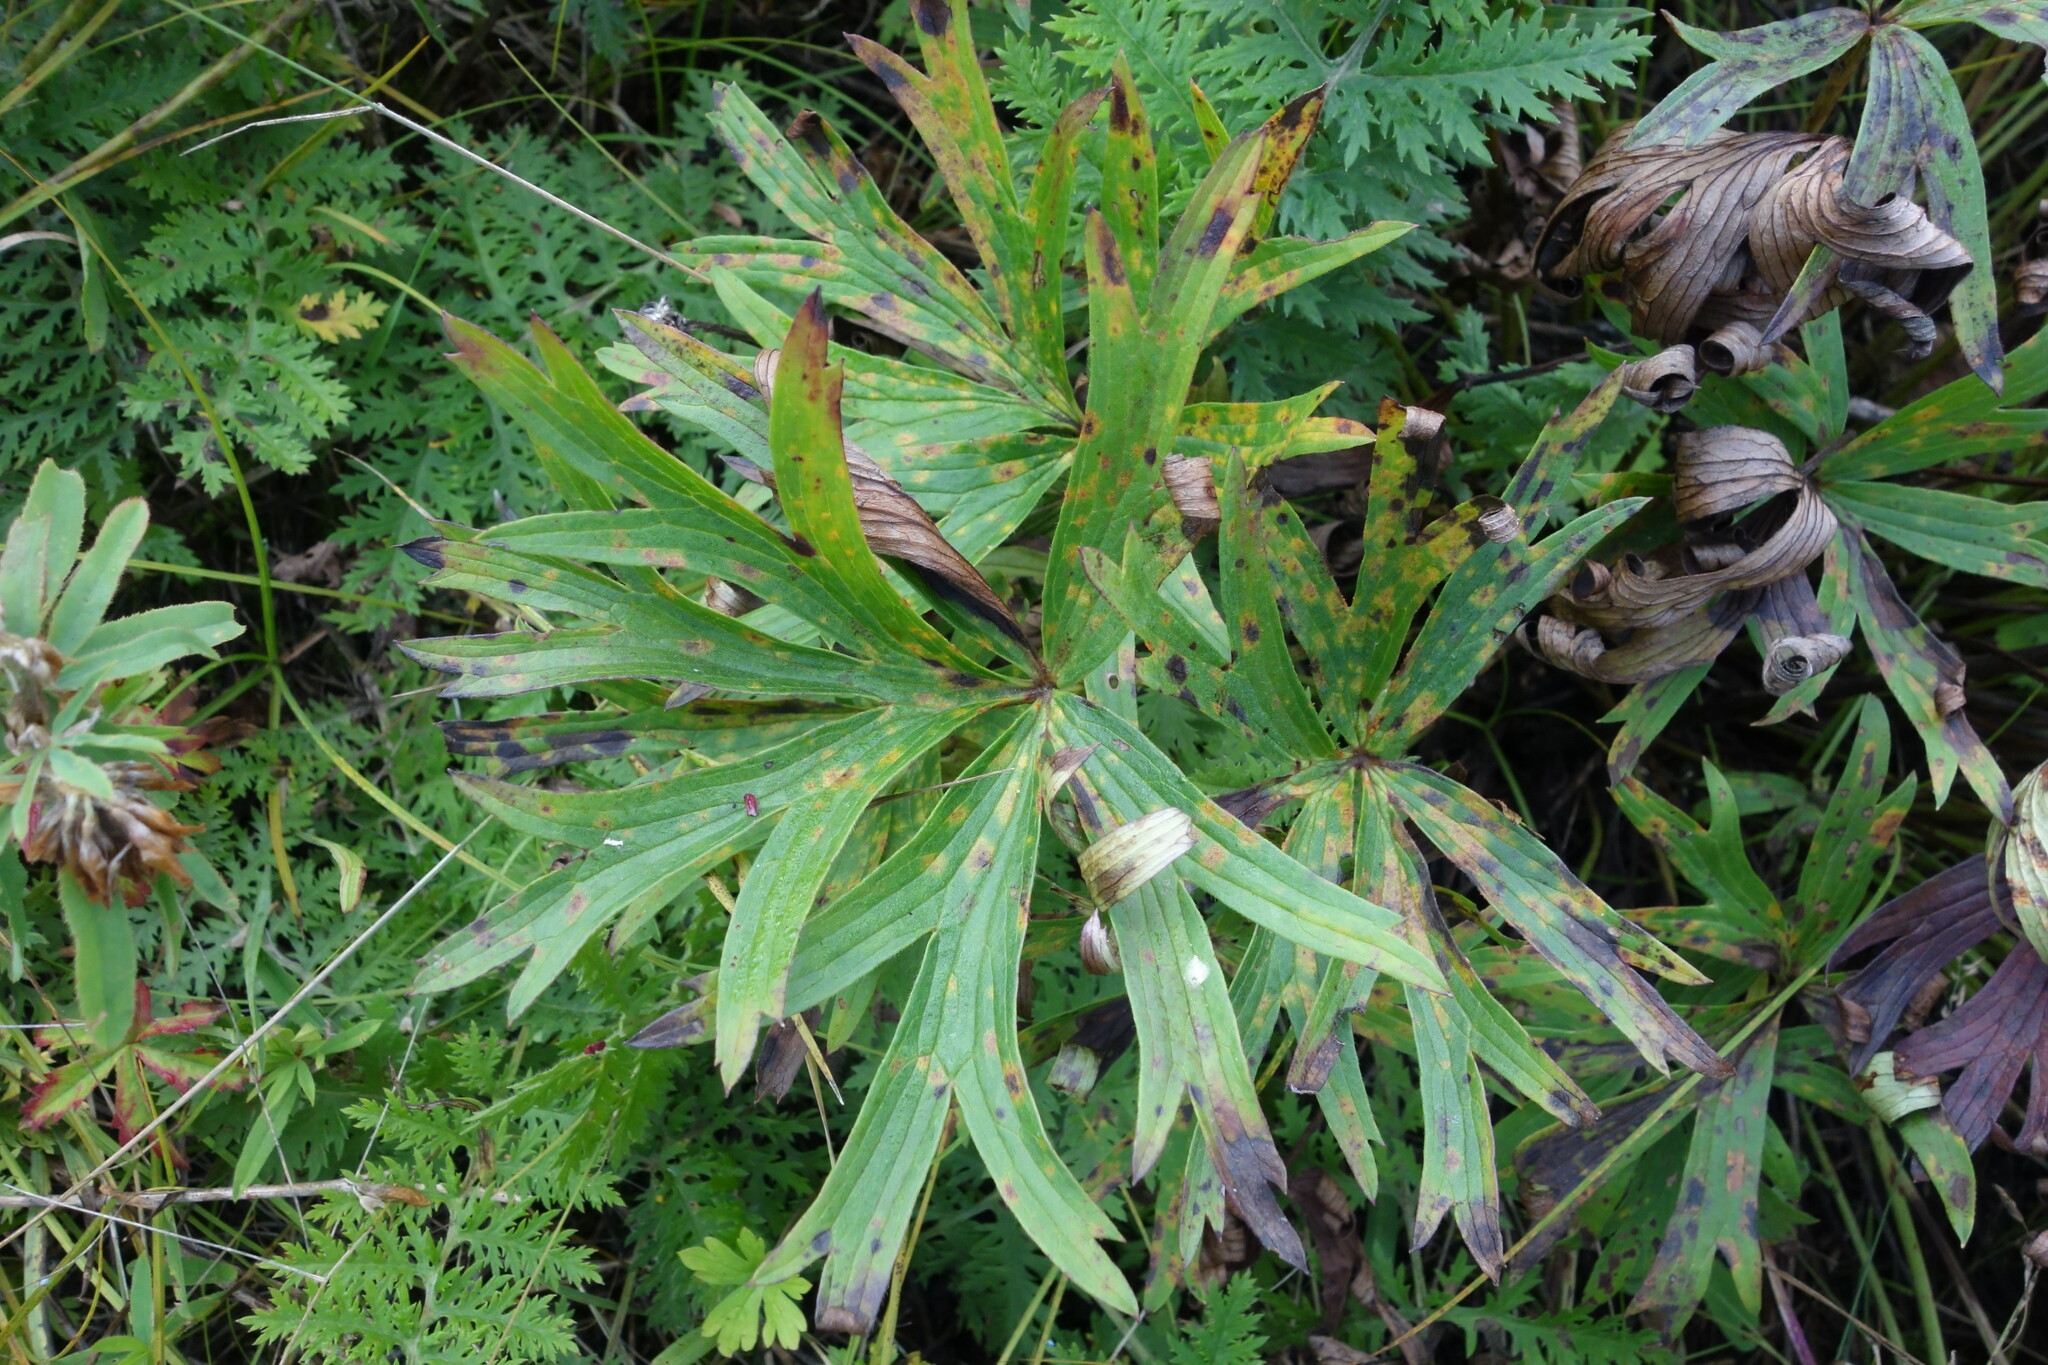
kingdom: Plantae
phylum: Tracheophyta
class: Magnoliopsida
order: Ranunculales
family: Ranunculaceae
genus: Pulsatilla
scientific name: Pulsatilla patens
